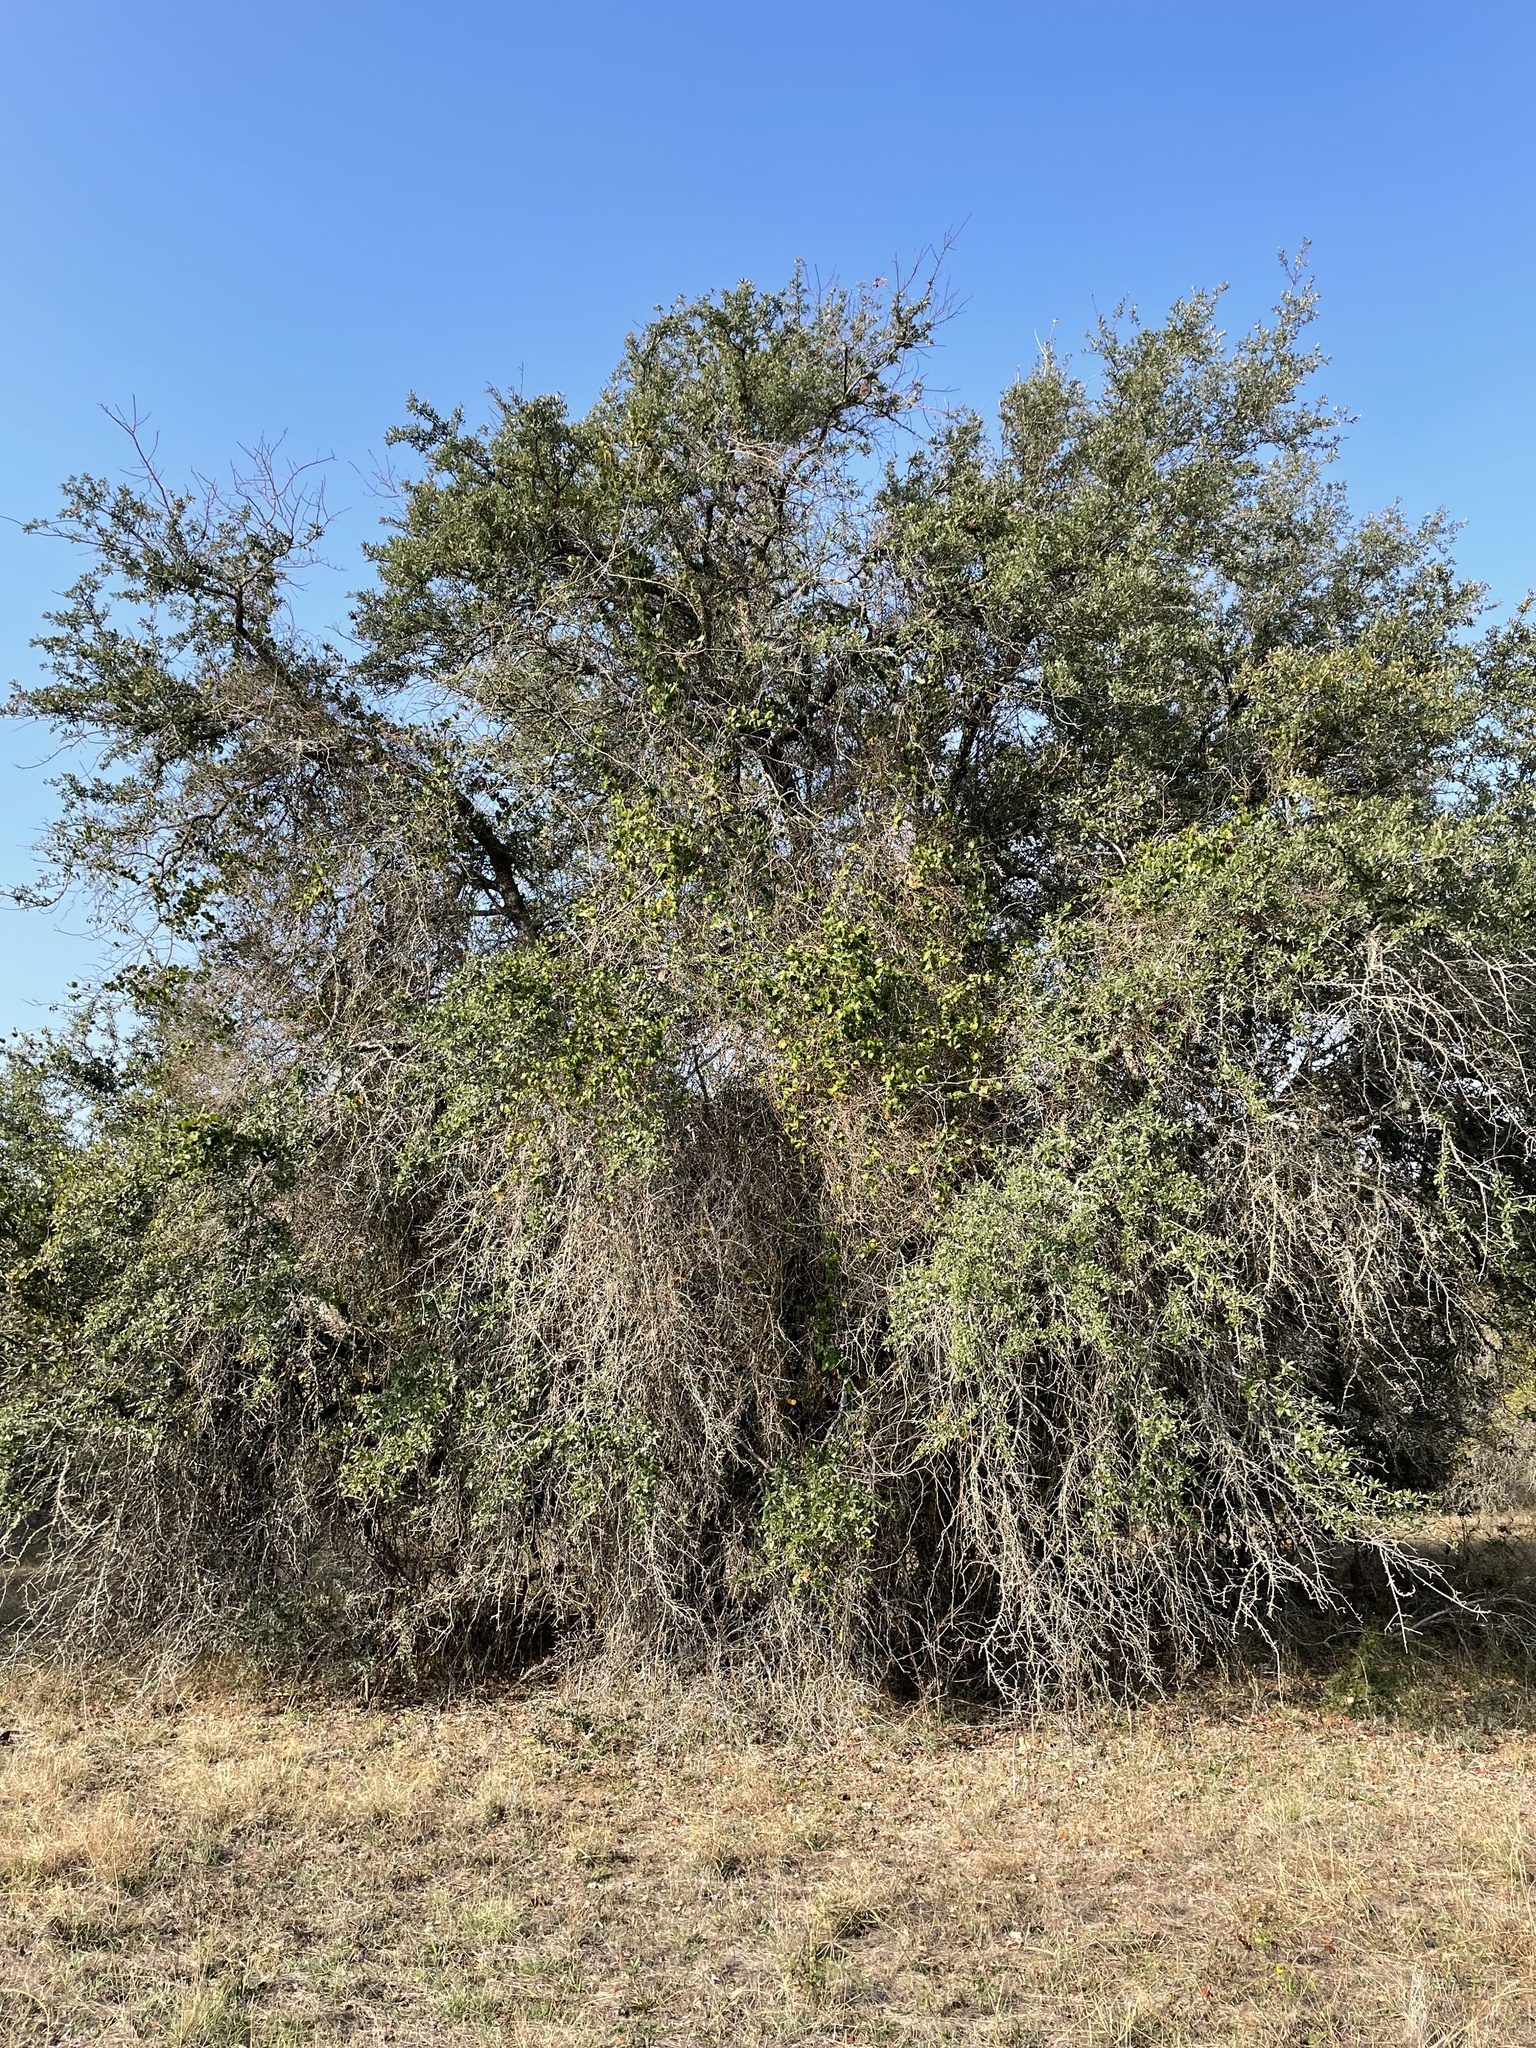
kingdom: Plantae
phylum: Tracheophyta
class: Magnoliopsida
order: Fagales
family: Fagaceae
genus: Quercus
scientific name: Quercus fusiformis
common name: Texas live oak
